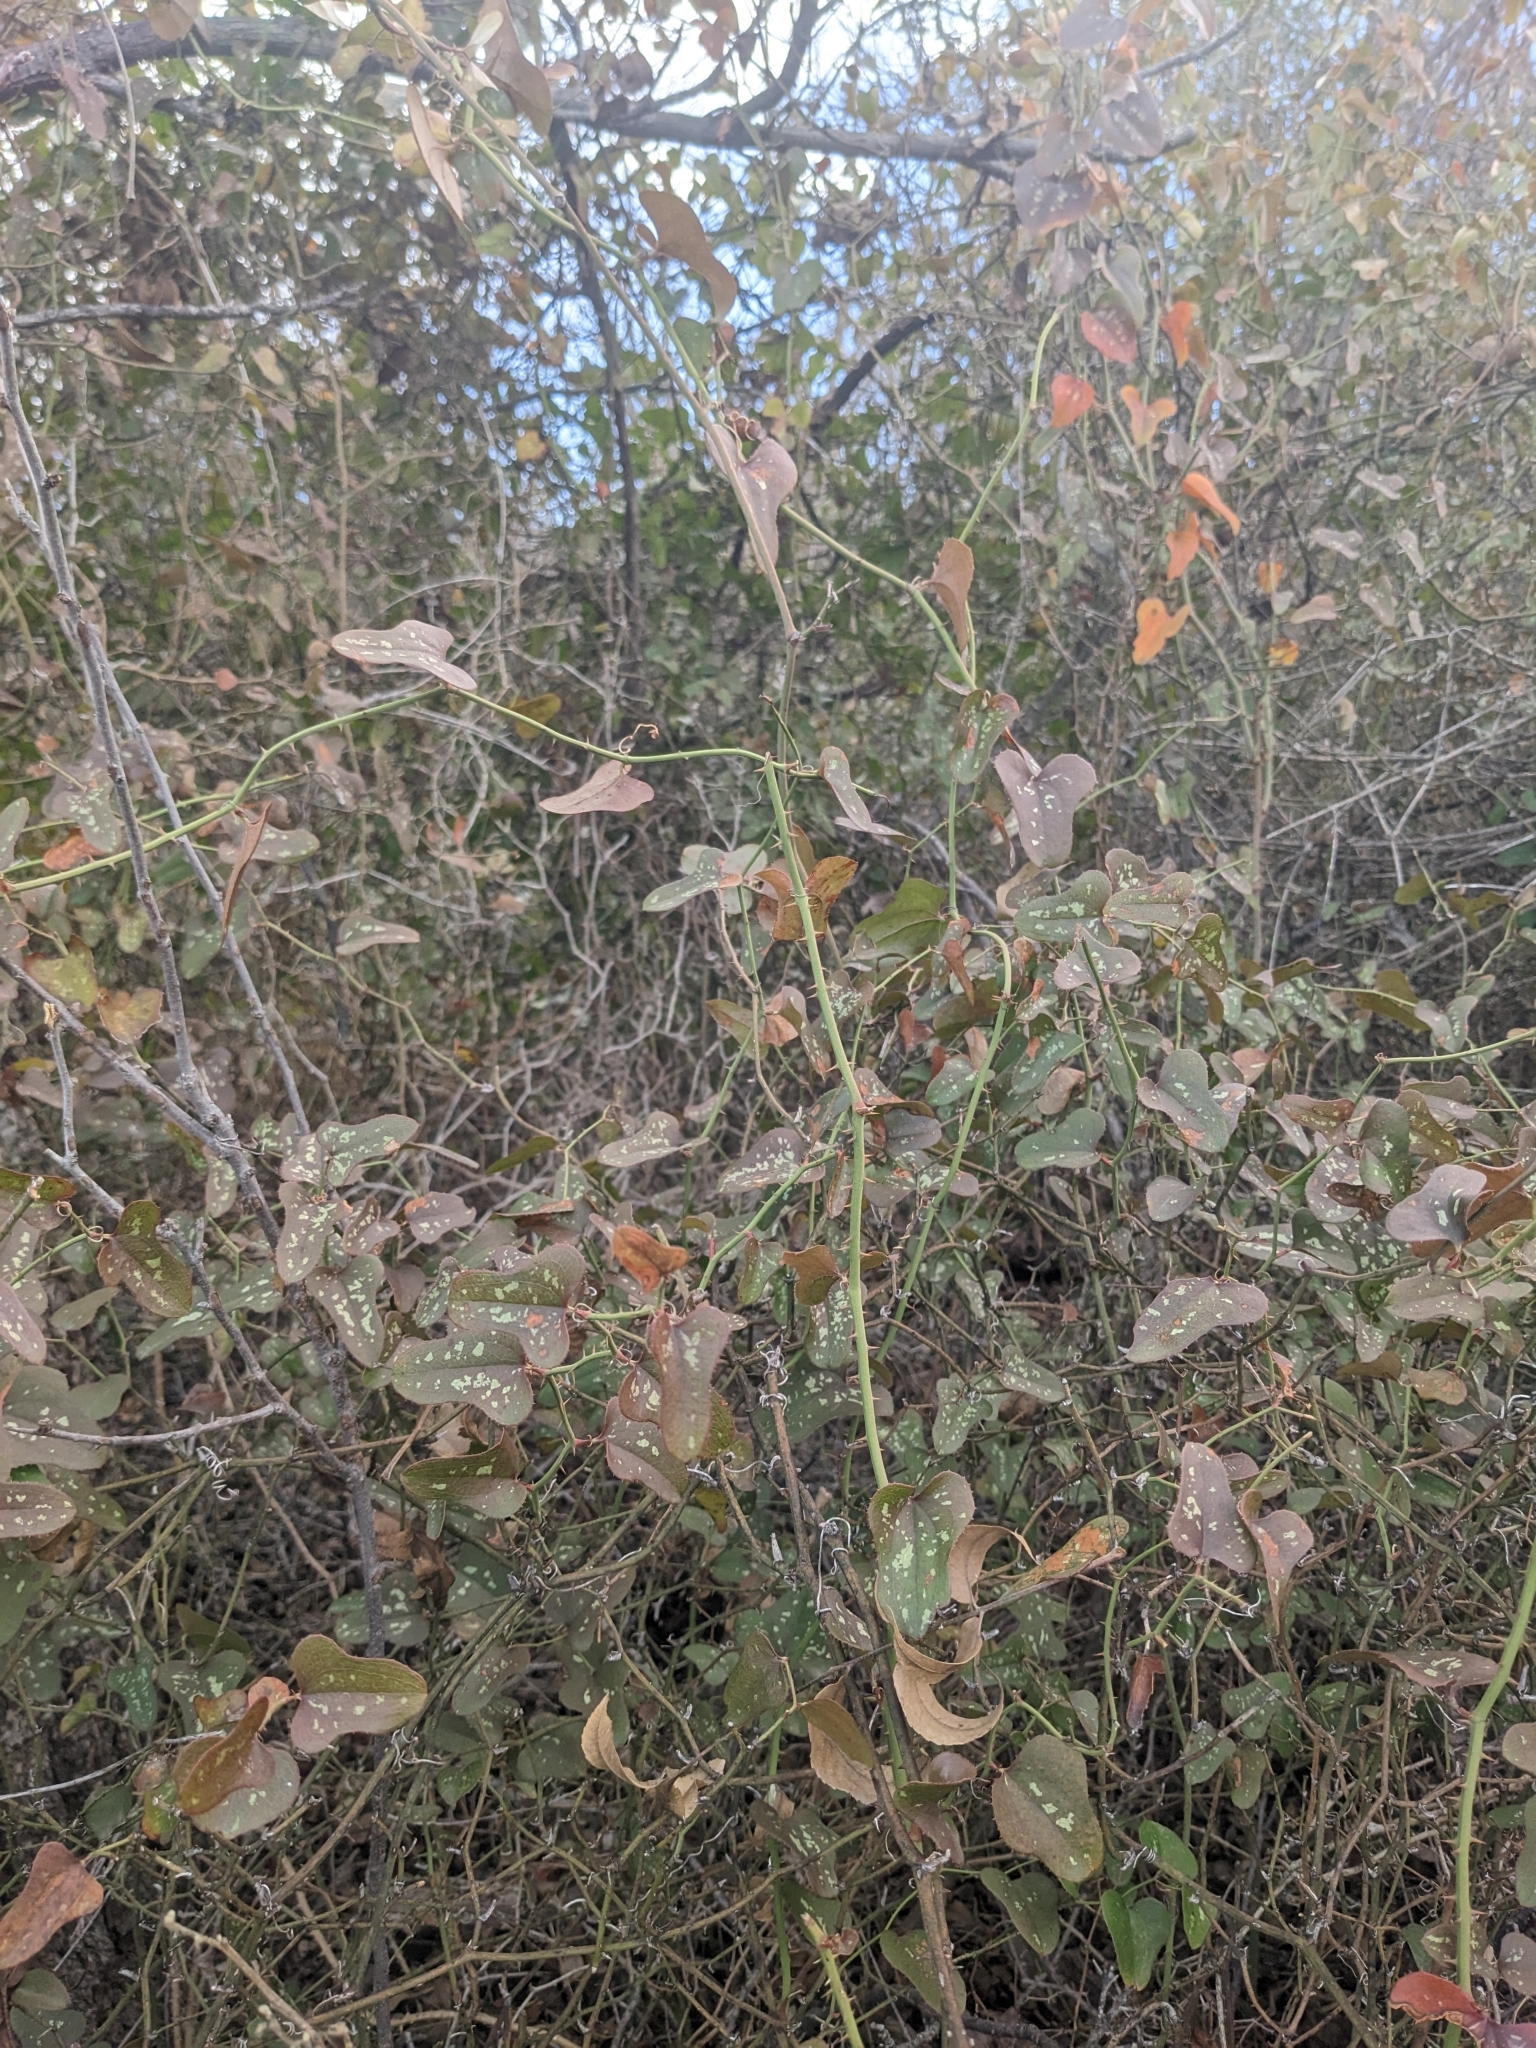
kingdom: Plantae
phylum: Tracheophyta
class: Liliopsida
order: Liliales
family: Smilacaceae
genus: Smilax
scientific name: Smilax bona-nox
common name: Catbrier
